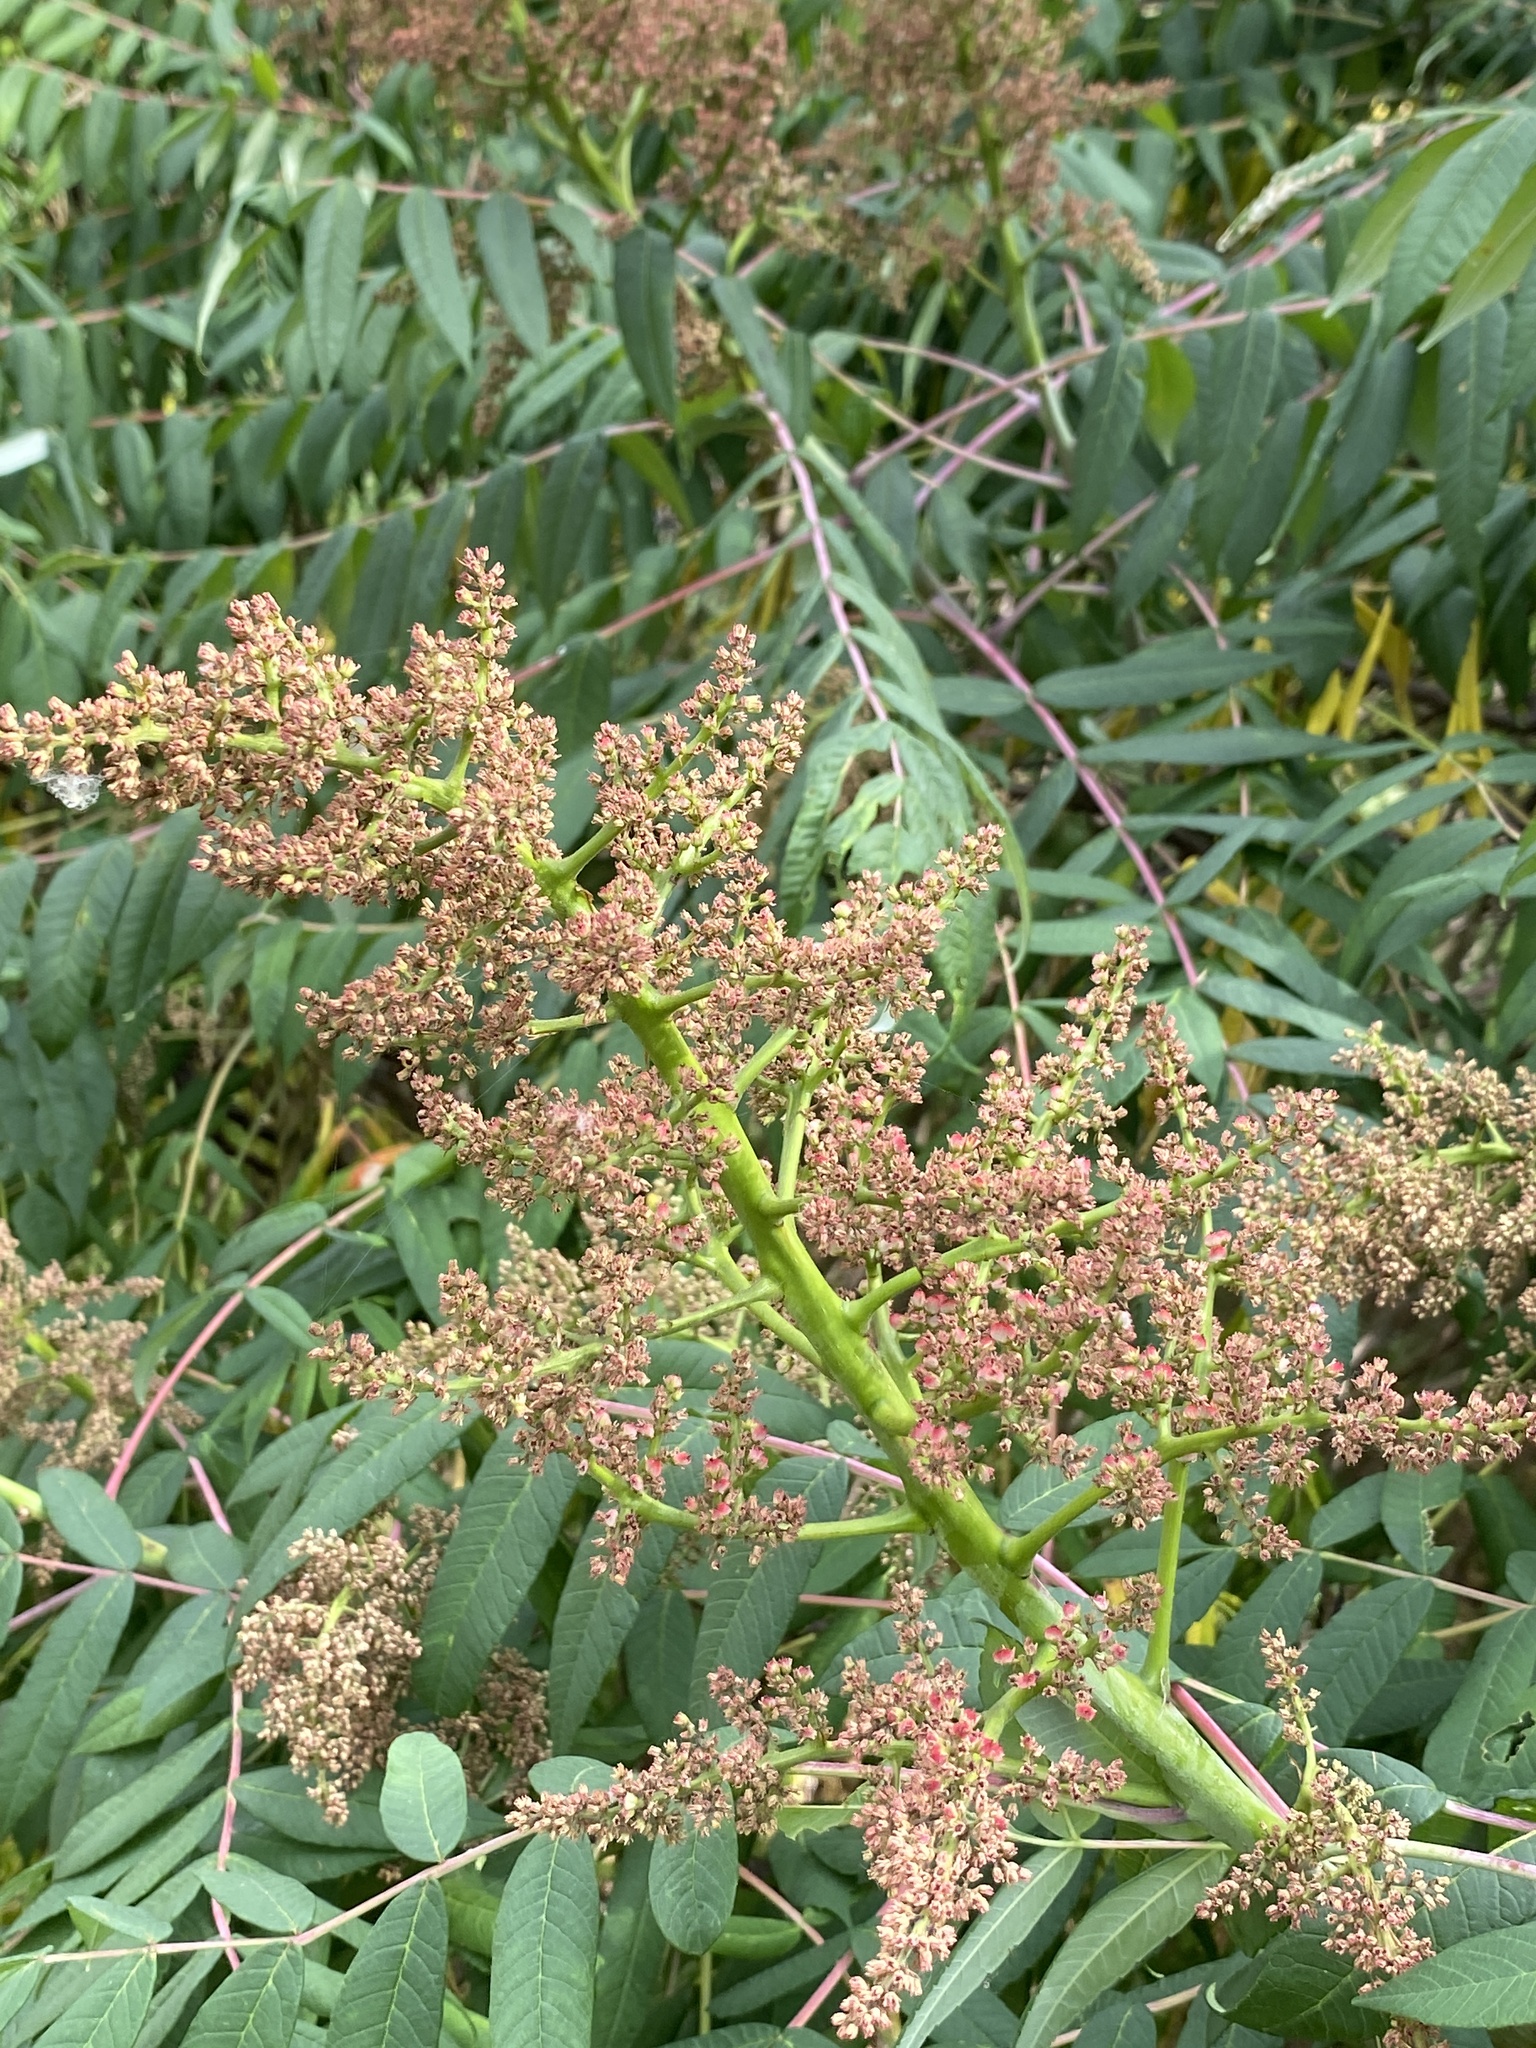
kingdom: Plantae
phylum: Tracheophyta
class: Magnoliopsida
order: Sapindales
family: Anacardiaceae
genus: Rhus
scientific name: Rhus glabra
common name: Scarlet sumac
